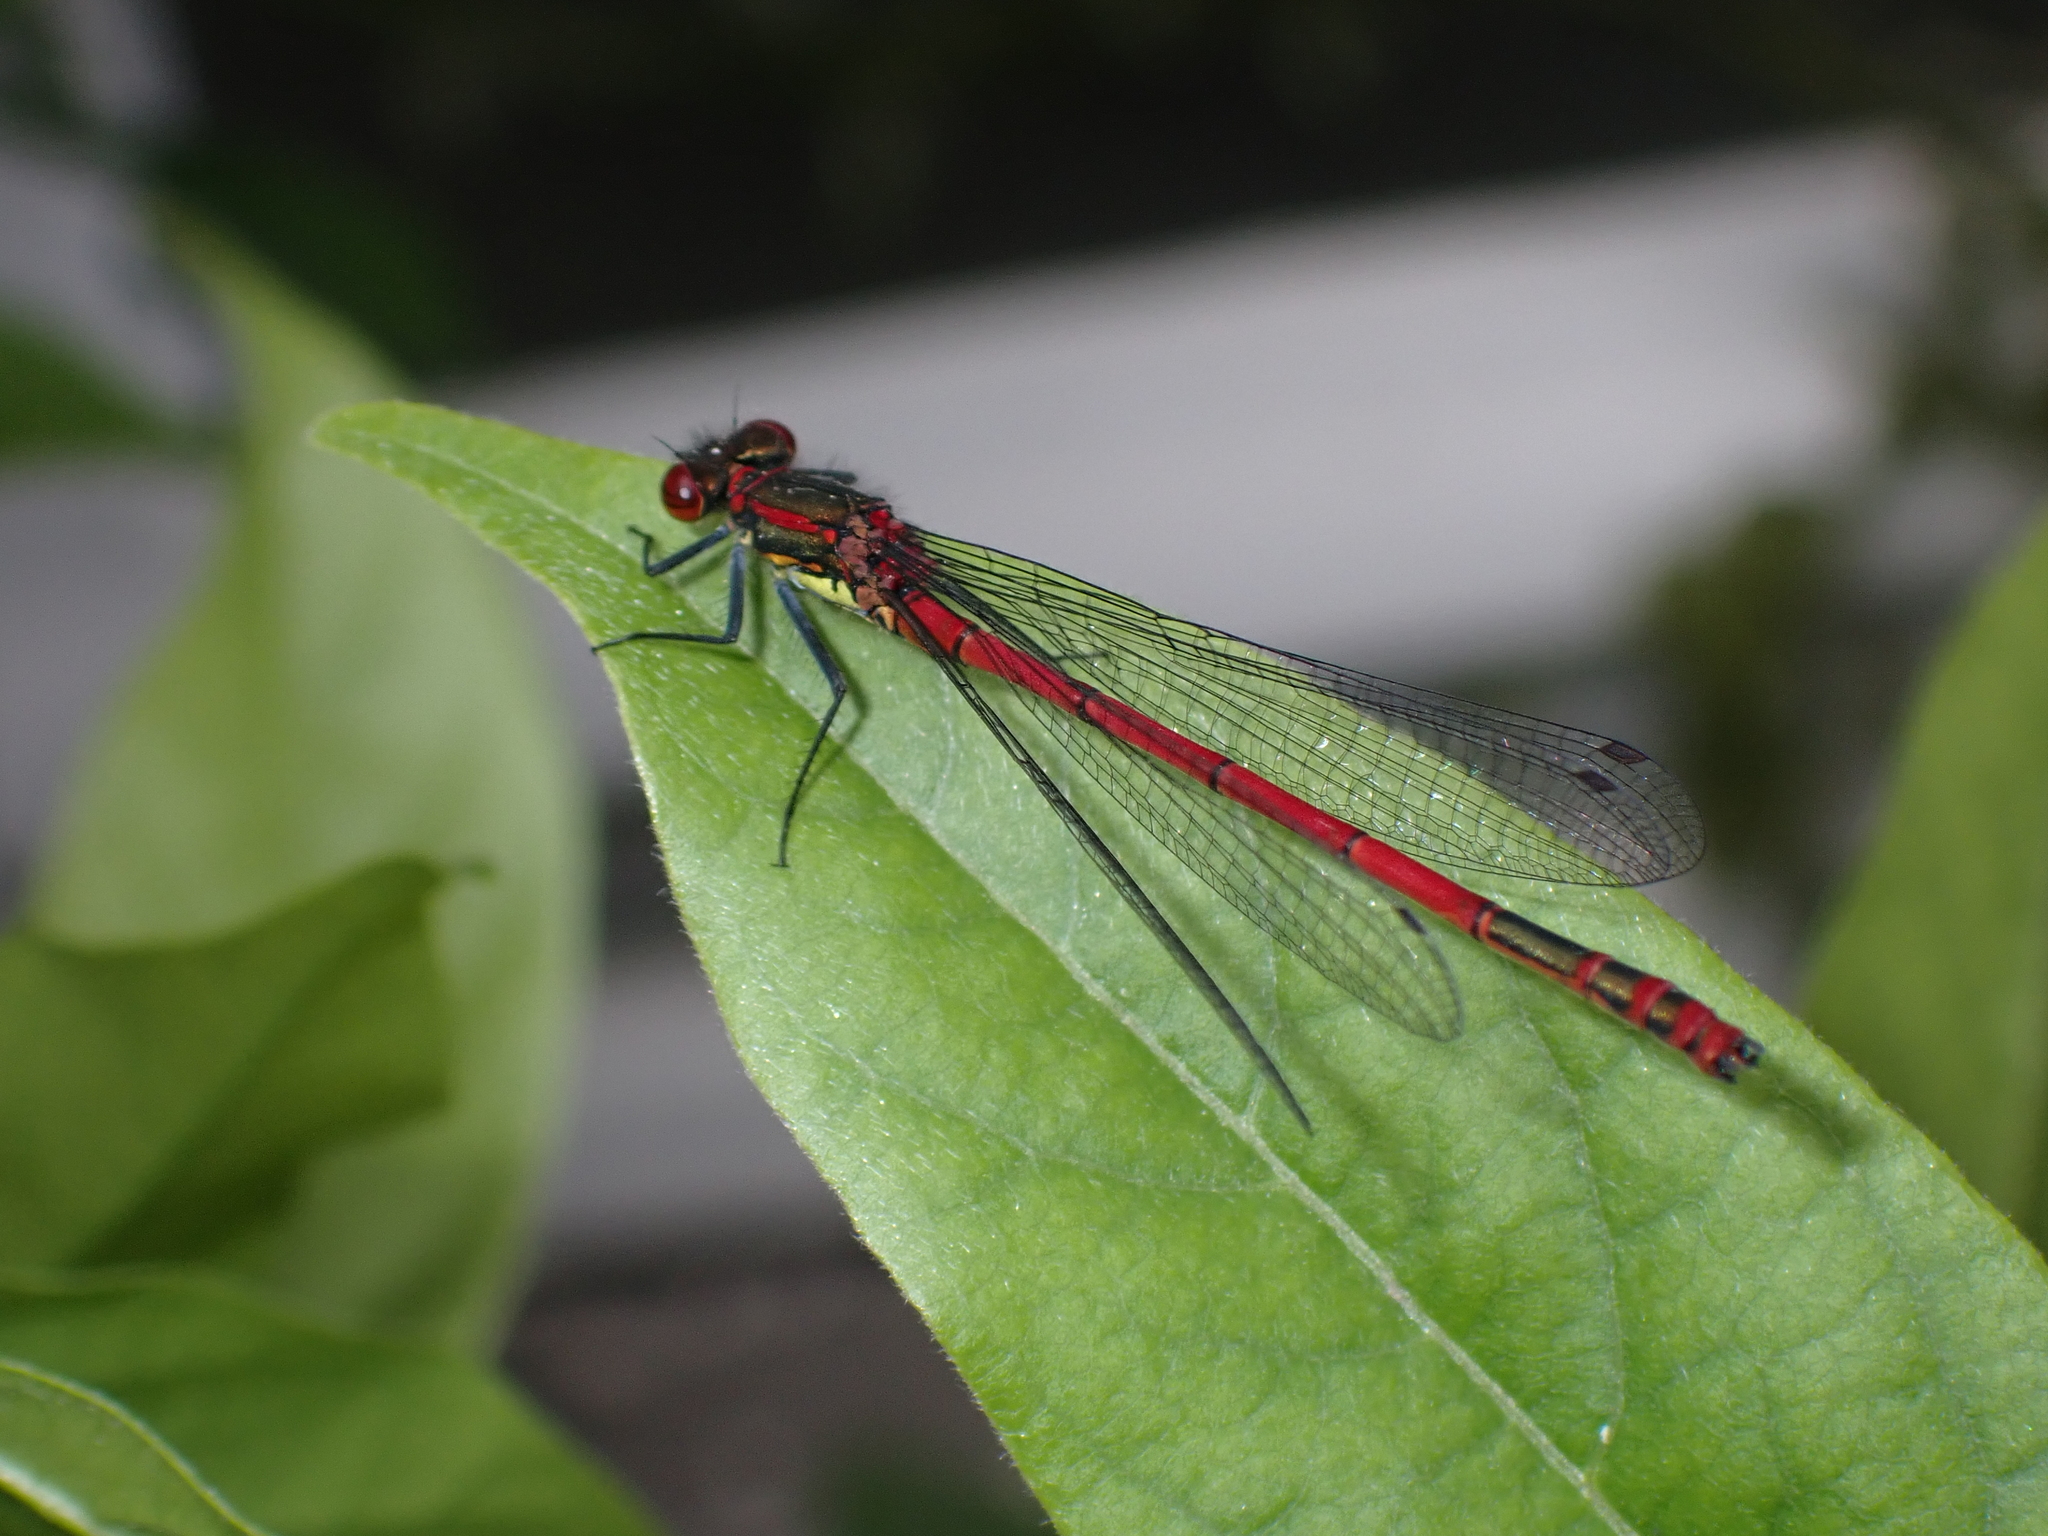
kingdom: Animalia
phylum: Arthropoda
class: Insecta
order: Odonata
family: Coenagrionidae
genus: Pyrrhosoma
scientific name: Pyrrhosoma nymphula
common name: Large red damsel
